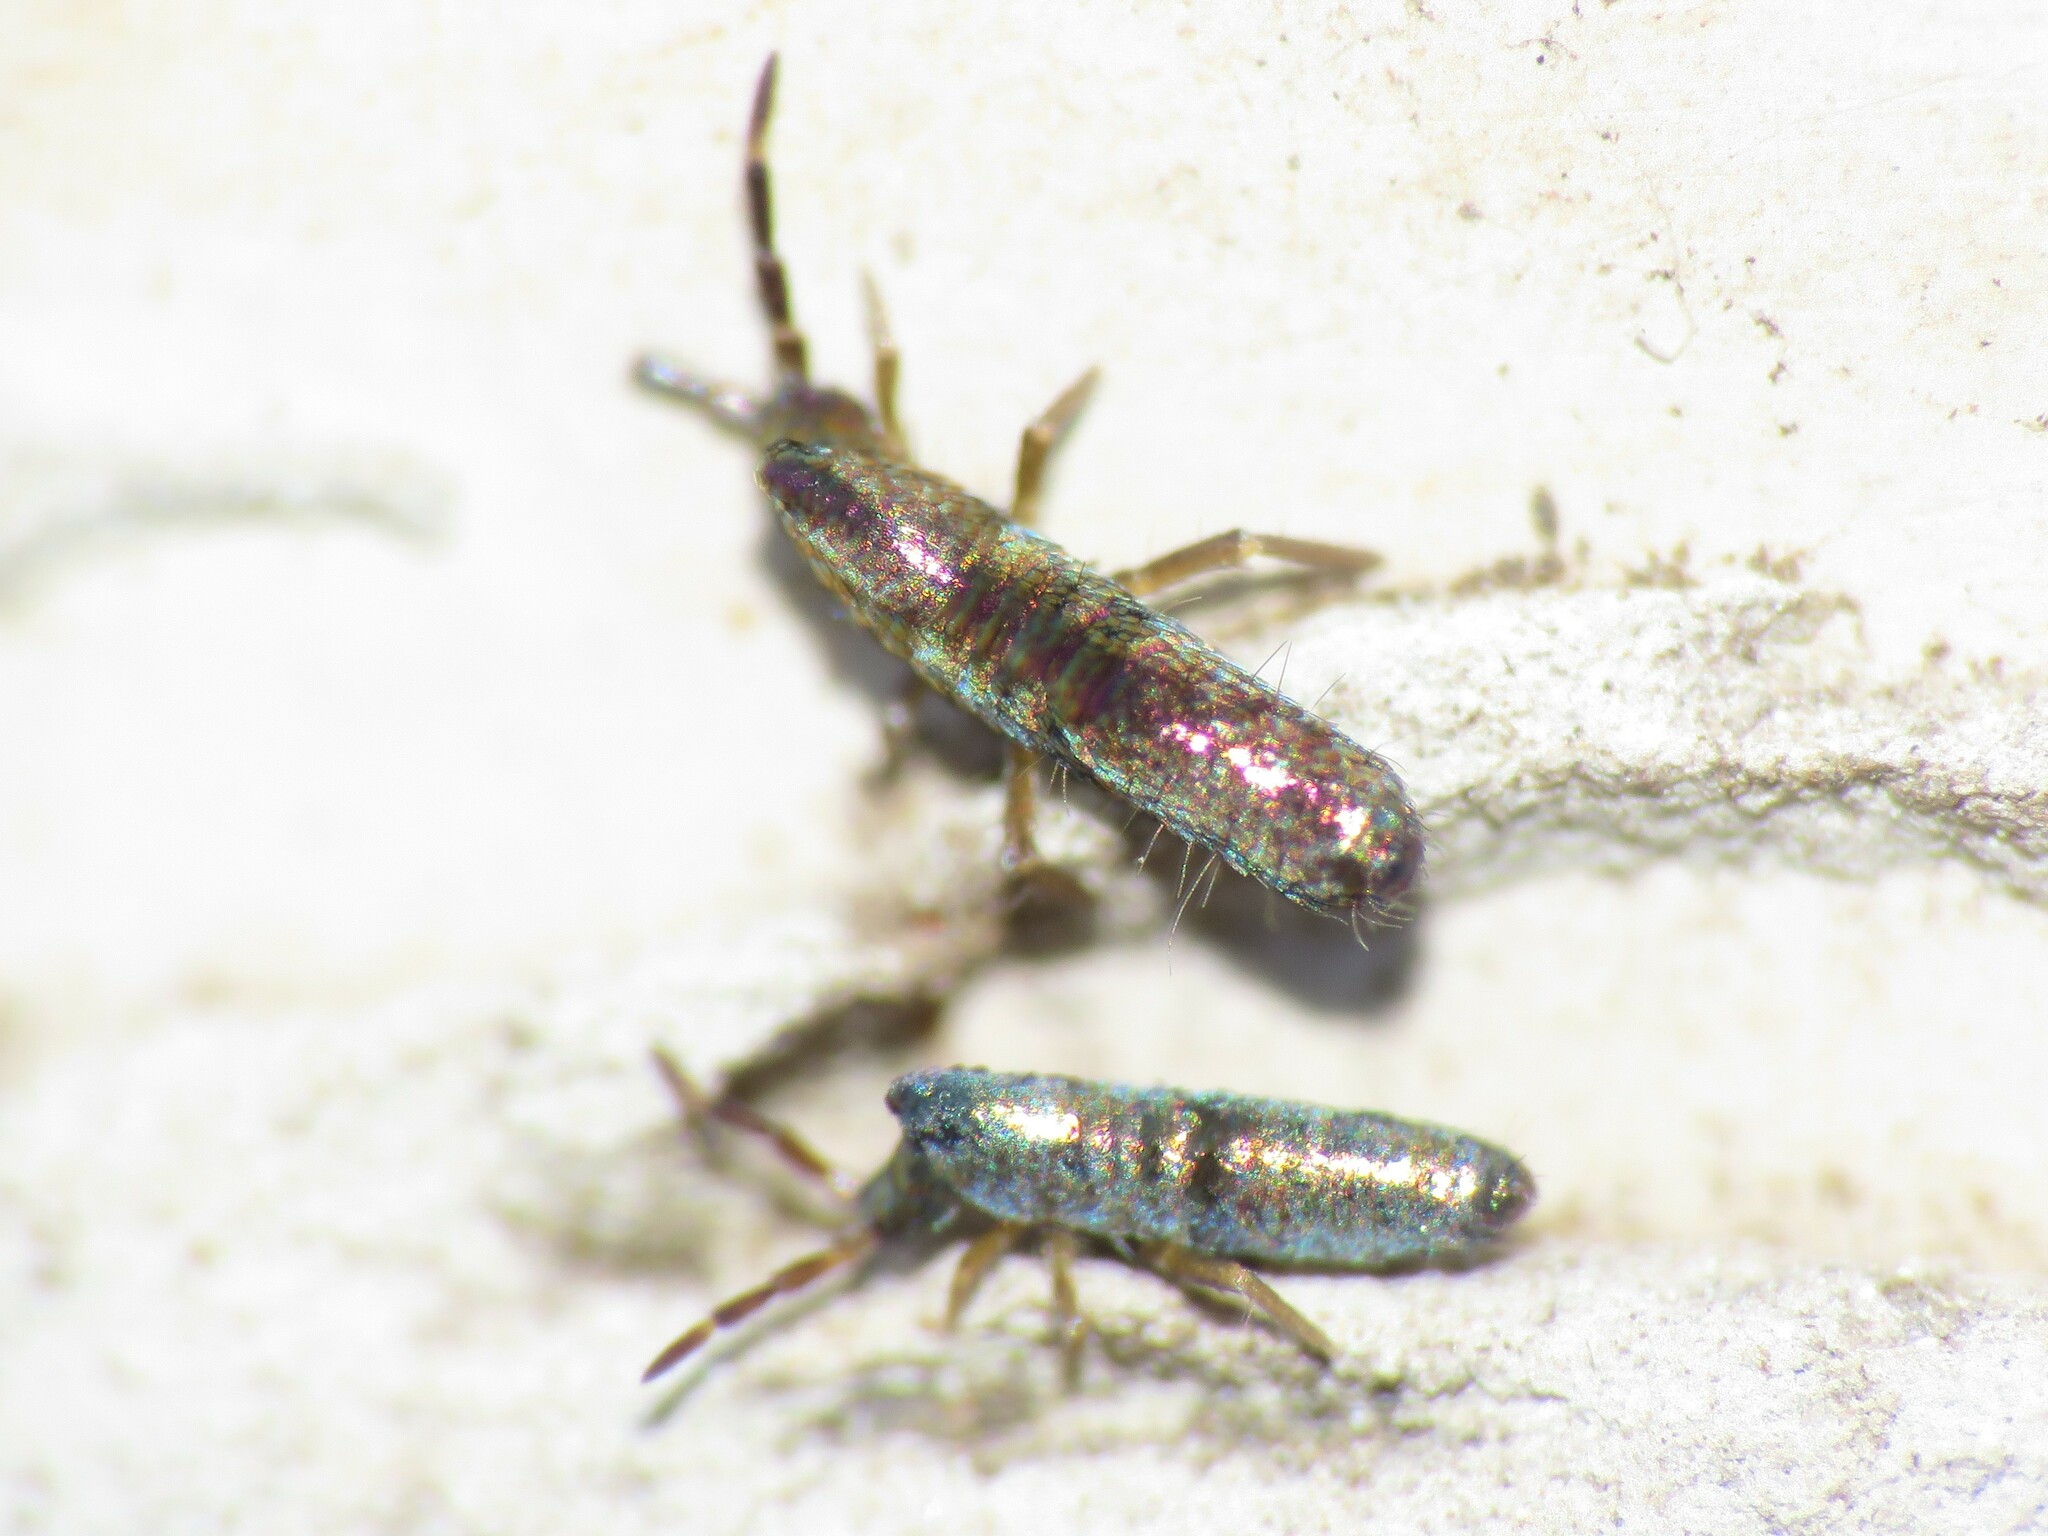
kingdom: Animalia
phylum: Arthropoda
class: Collembola
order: Entomobryomorpha
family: Entomobryidae
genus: Lepidocyrtus
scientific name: Lepidocyrtus paradoxus
